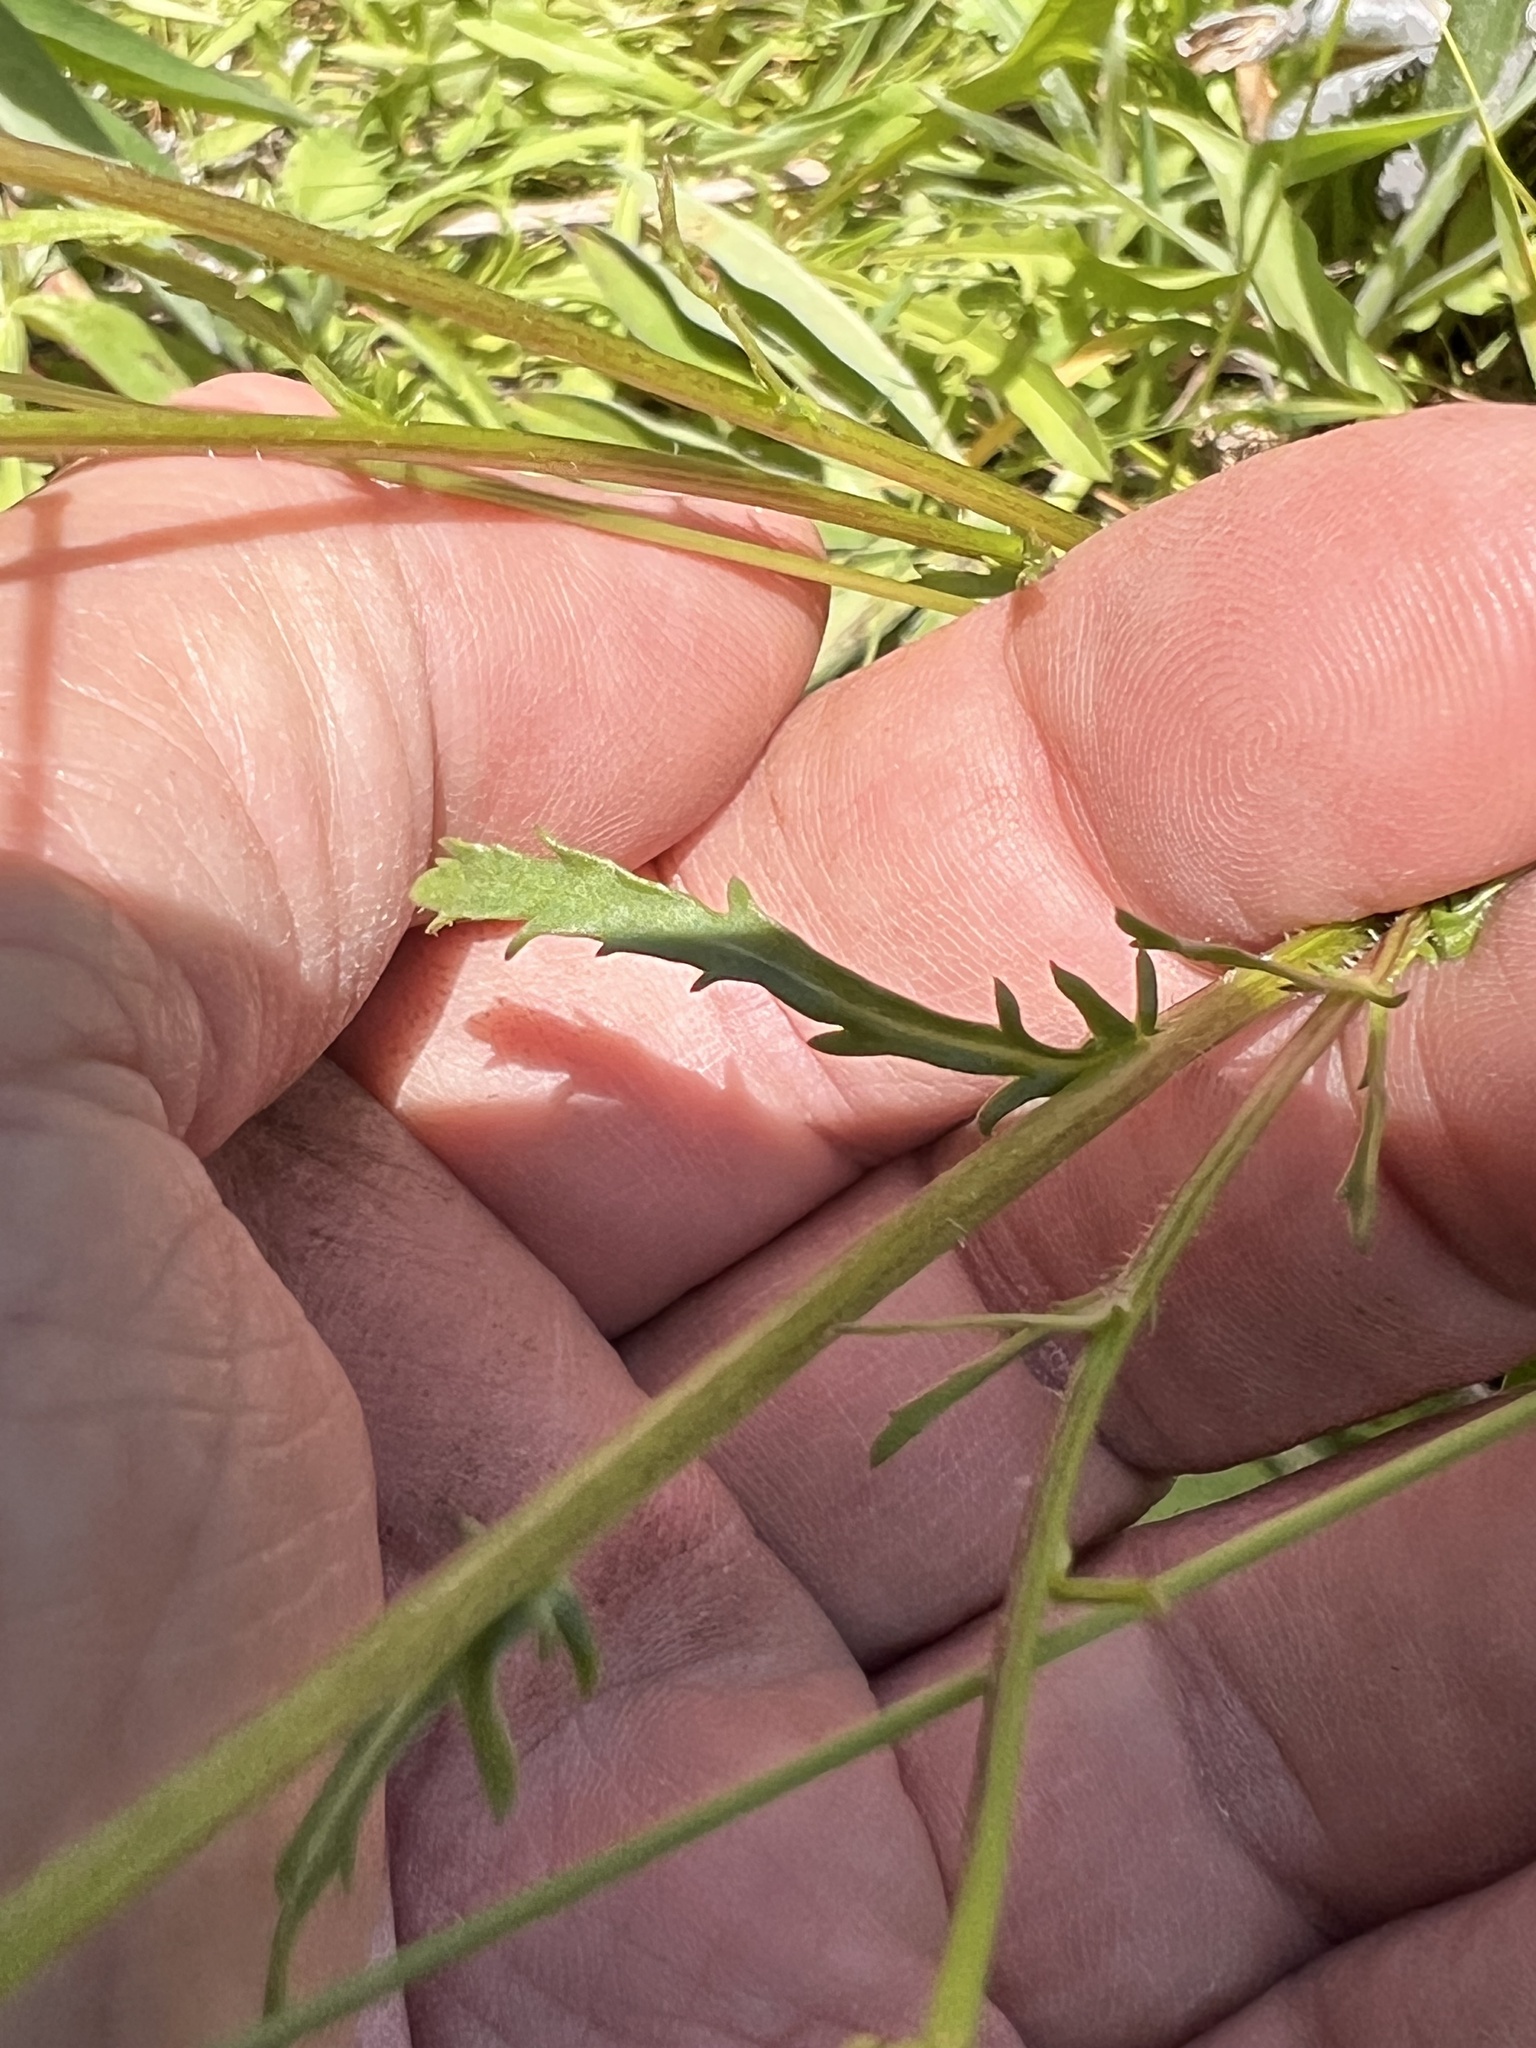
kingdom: Plantae
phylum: Tracheophyta
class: Magnoliopsida
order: Asterales
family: Asteraceae
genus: Leucanthemum
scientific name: Leucanthemum vulgare
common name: Oxeye daisy
